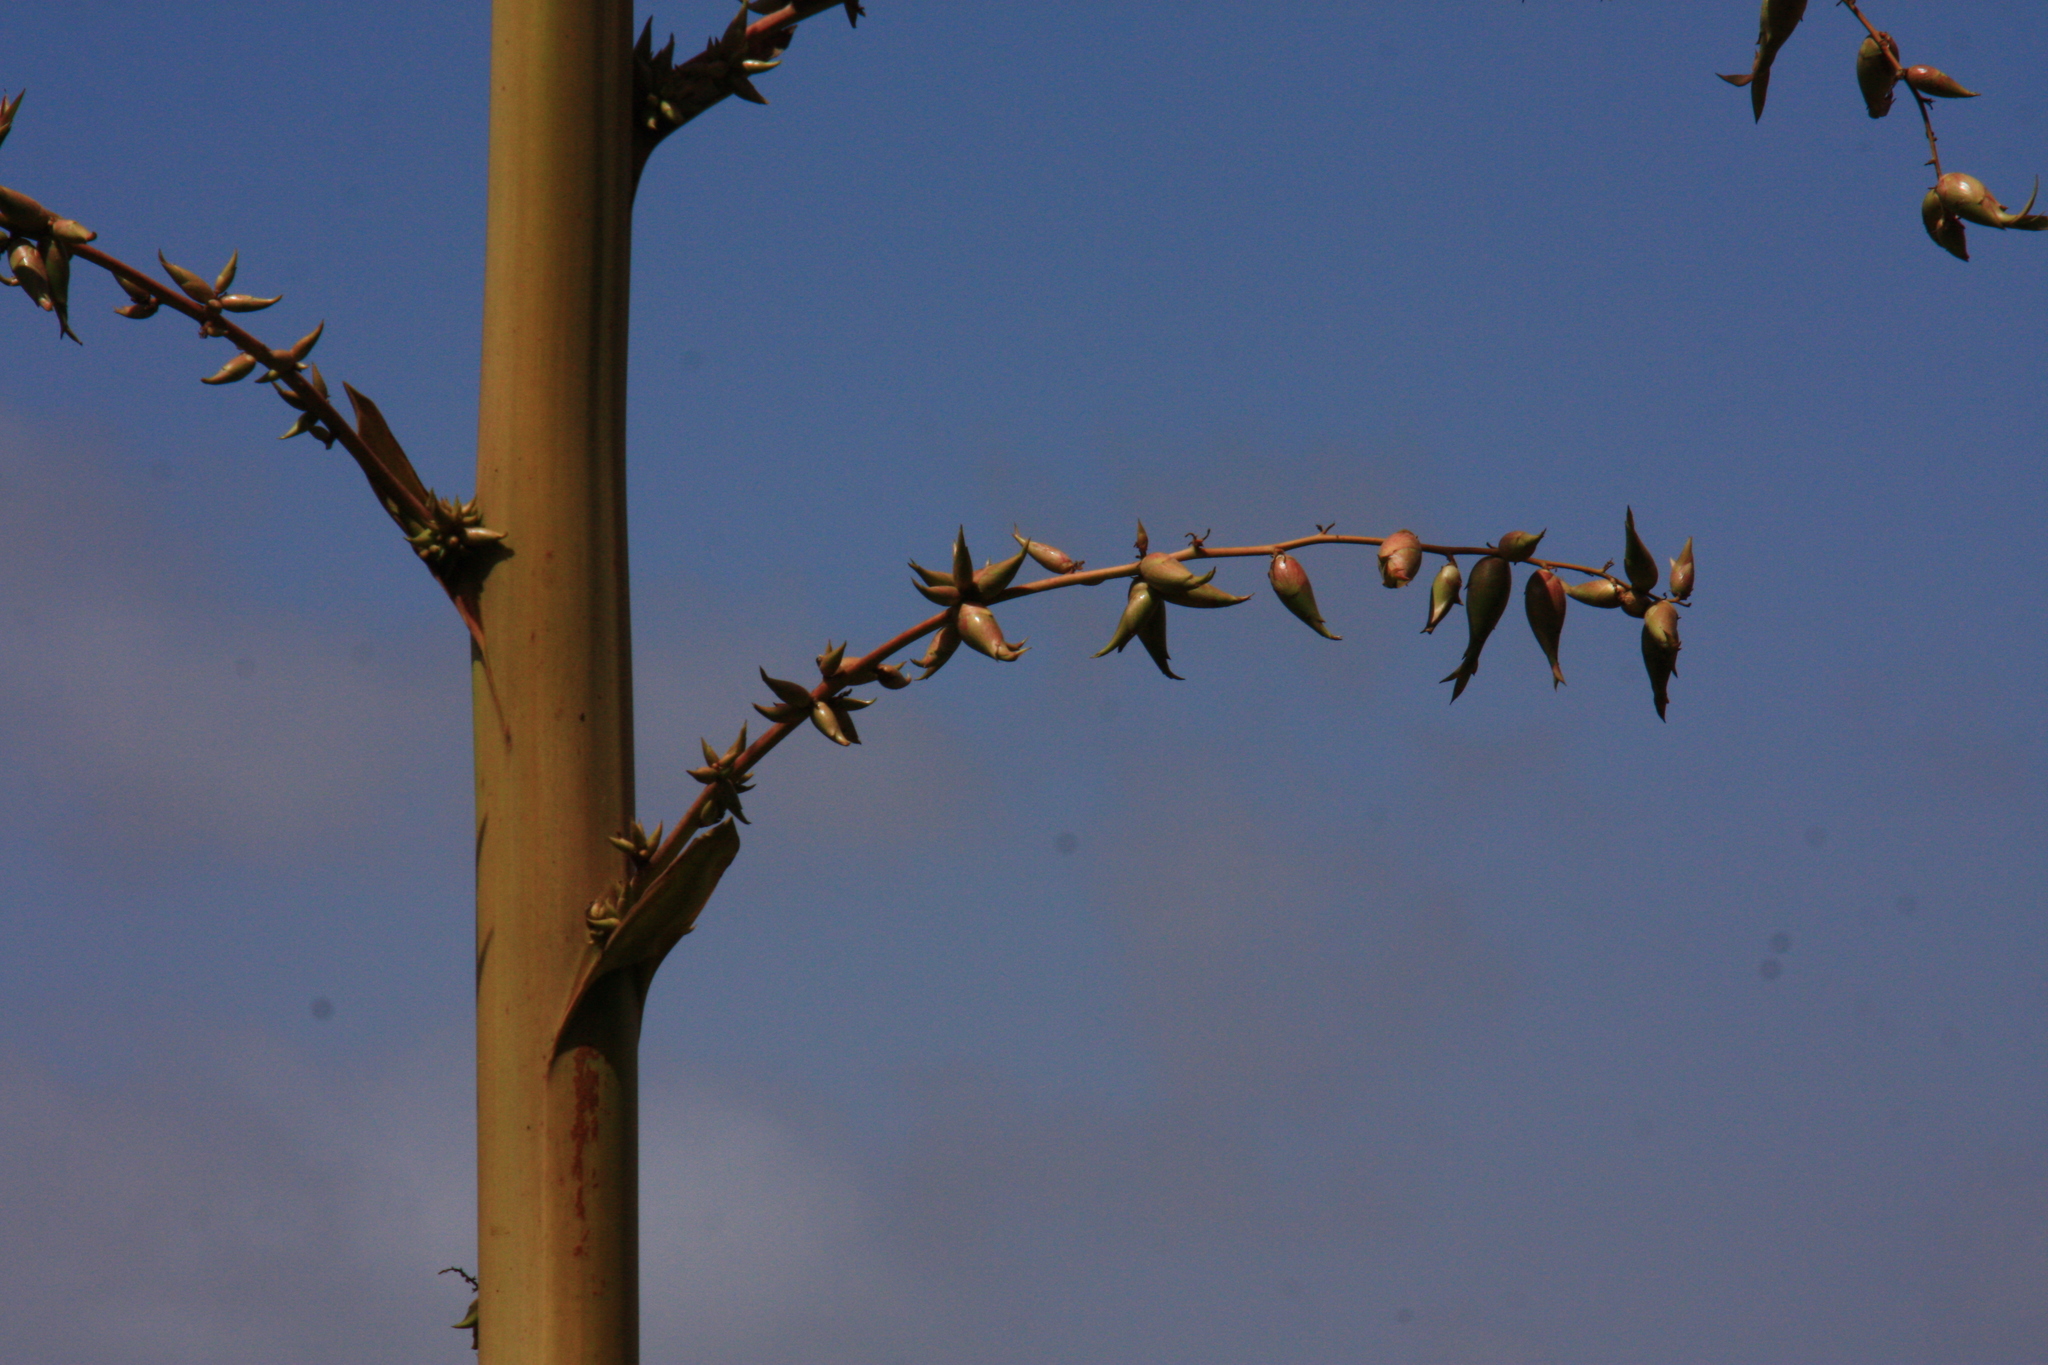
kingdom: Plantae
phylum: Tracheophyta
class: Liliopsida
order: Asparagales
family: Asparagaceae
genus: Furcraea
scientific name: Furcraea foetida
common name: Mauritius hemp
